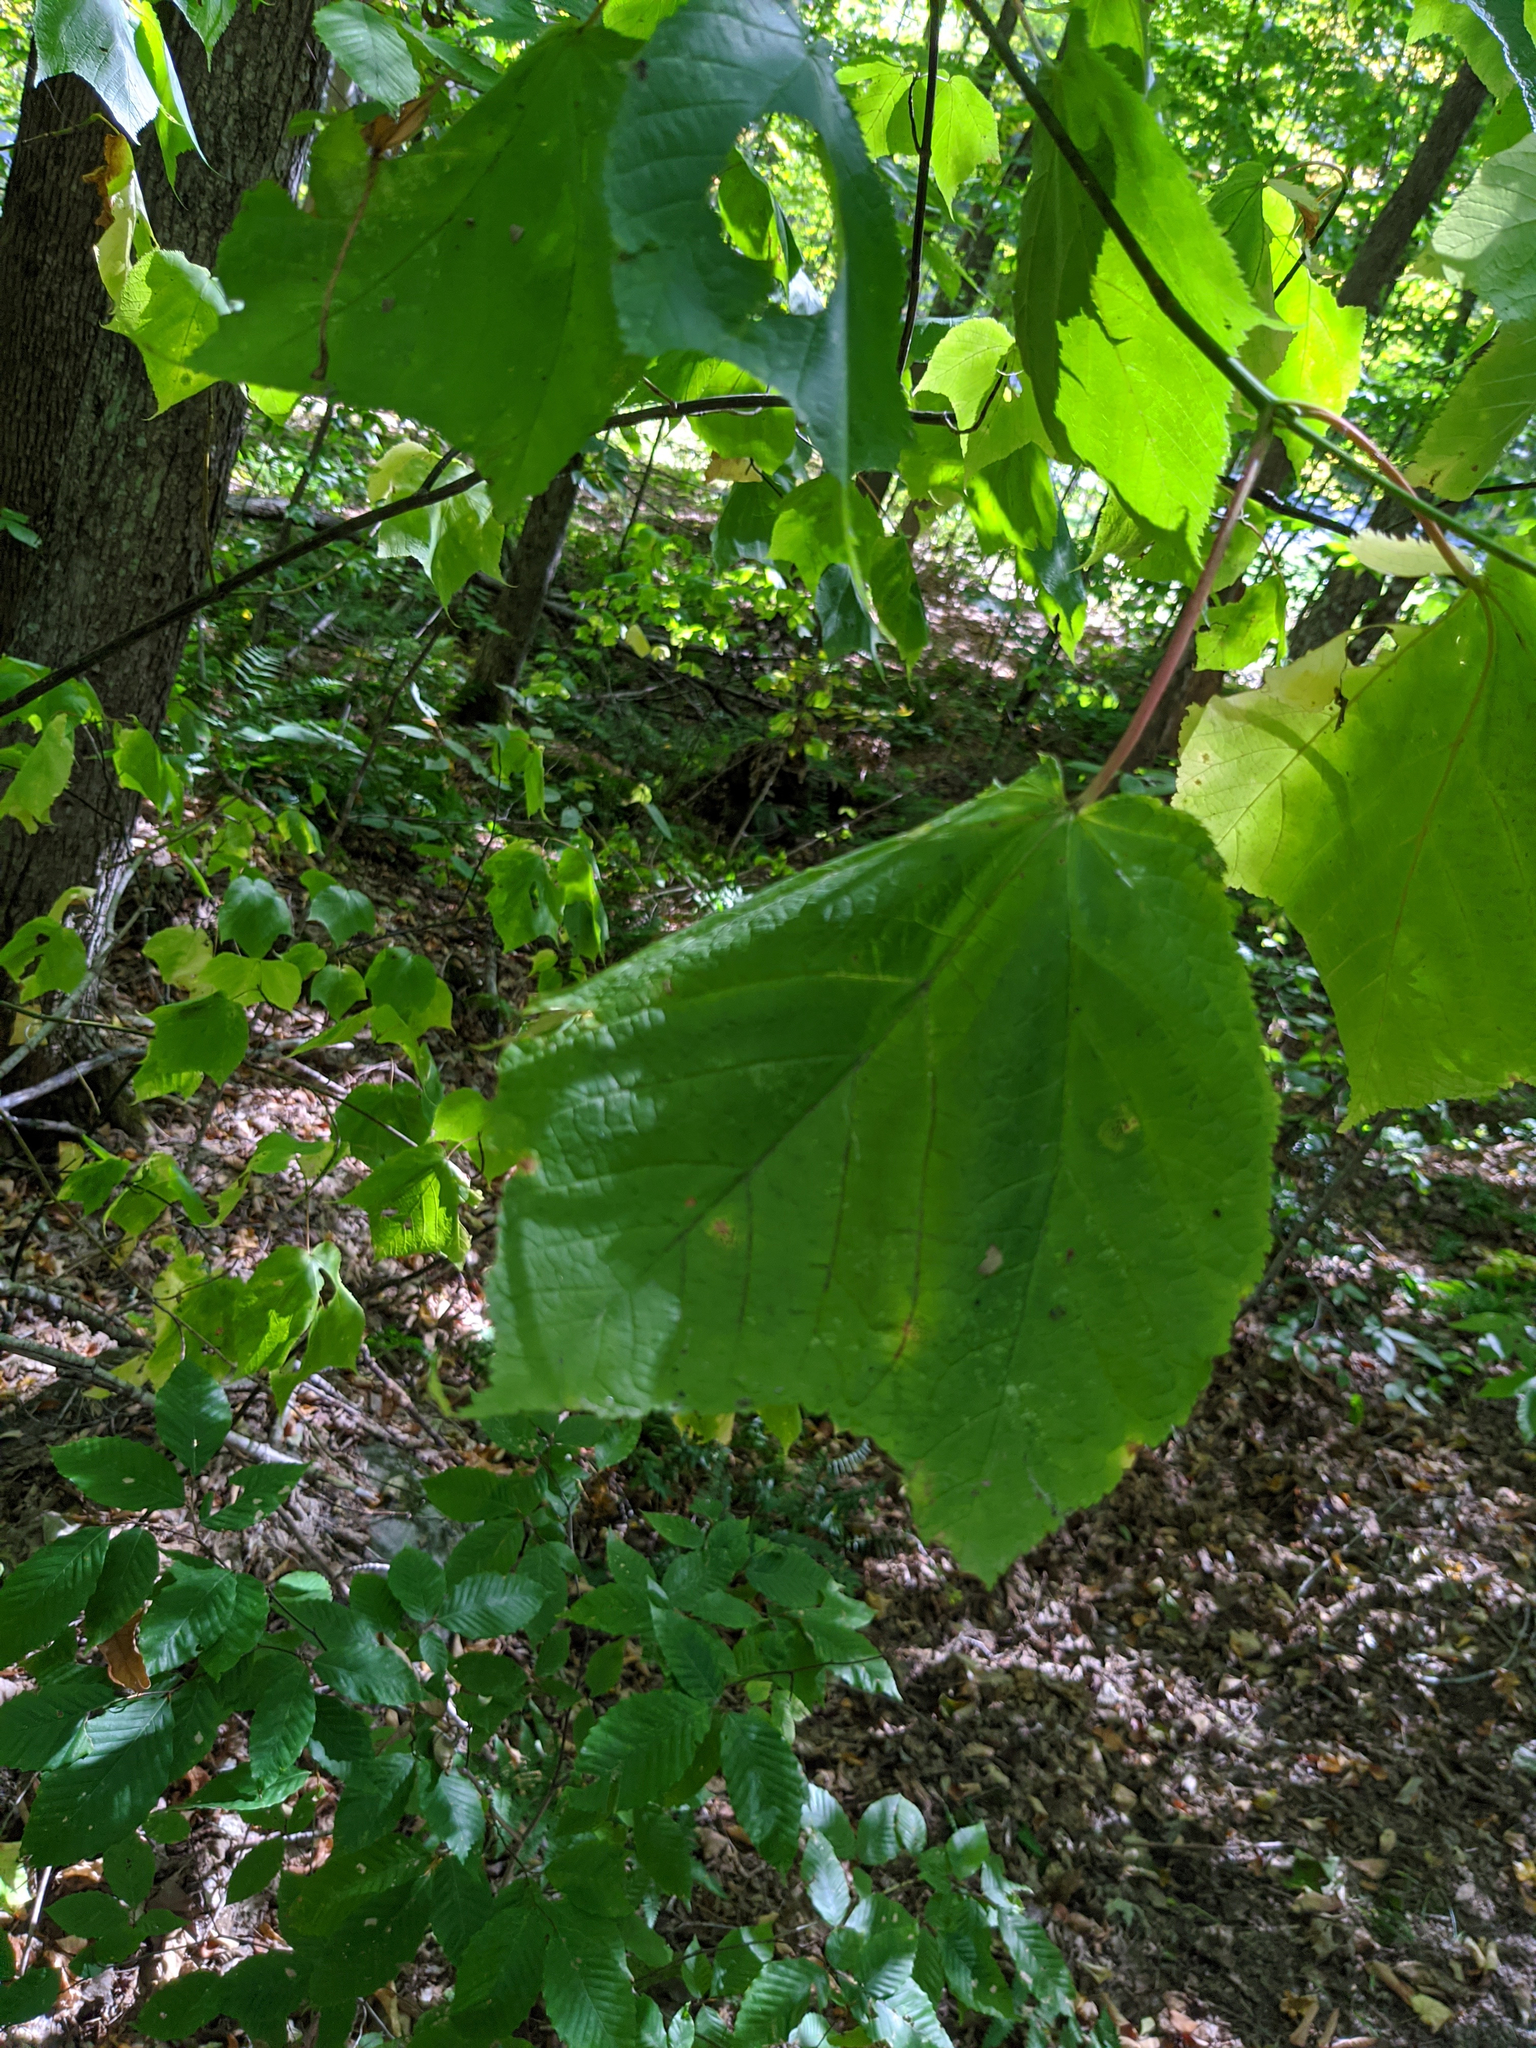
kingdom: Plantae
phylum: Tracheophyta
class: Magnoliopsida
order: Sapindales
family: Sapindaceae
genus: Acer
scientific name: Acer pensylvanicum
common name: Moosewood
